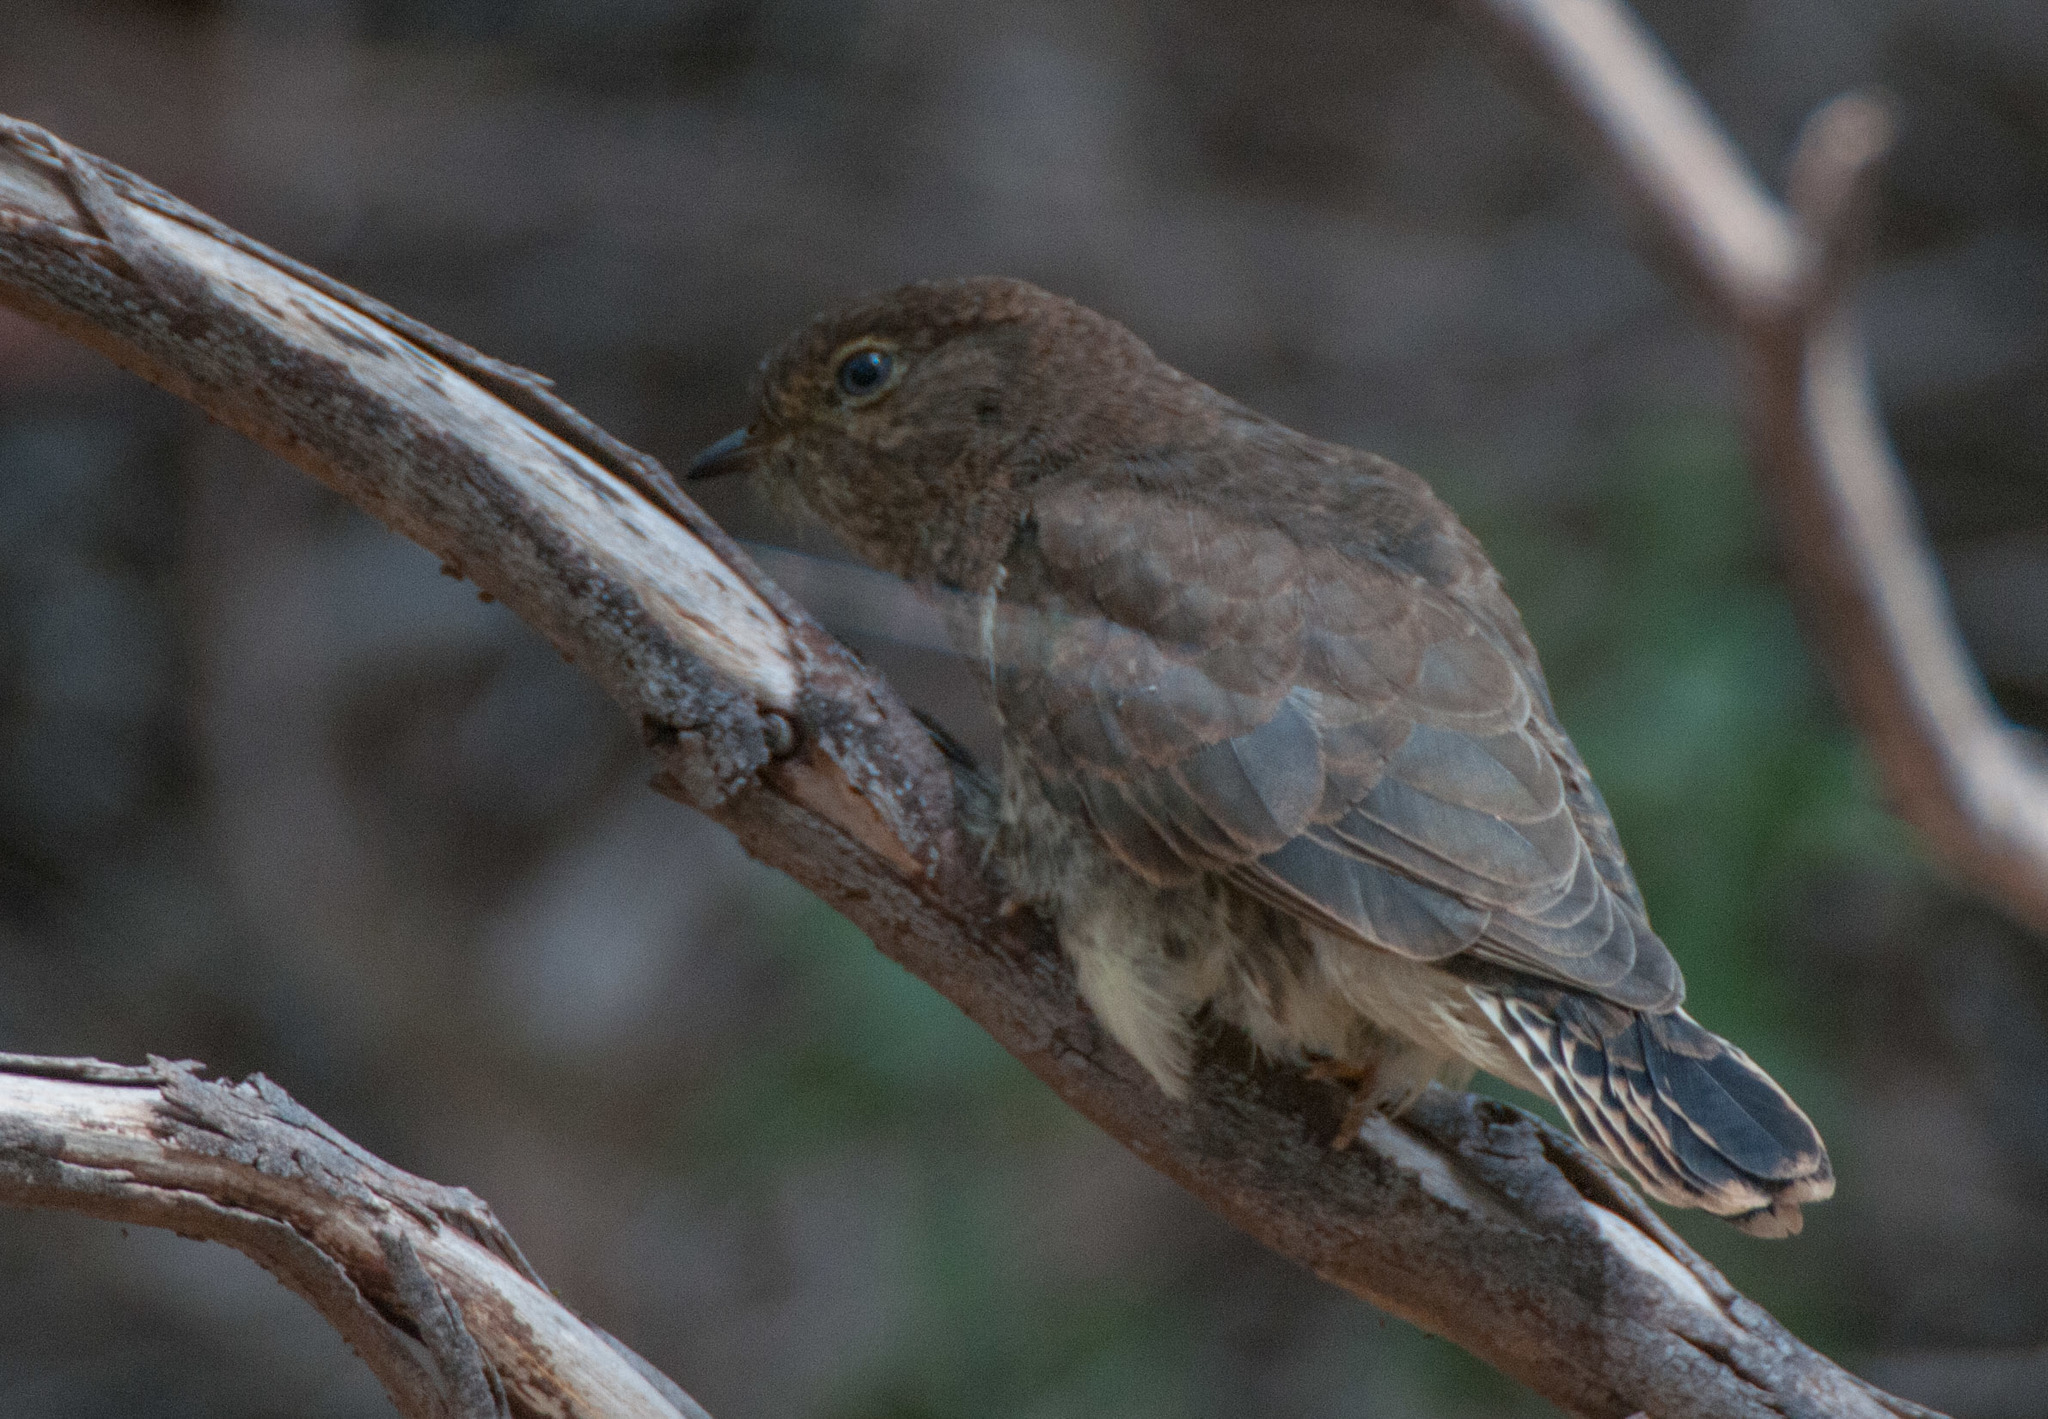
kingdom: Animalia
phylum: Chordata
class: Aves
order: Cuculiformes
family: Cuculidae
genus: Cacomantis
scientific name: Cacomantis flabelliformis
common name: Fan-tailed cuckoo
